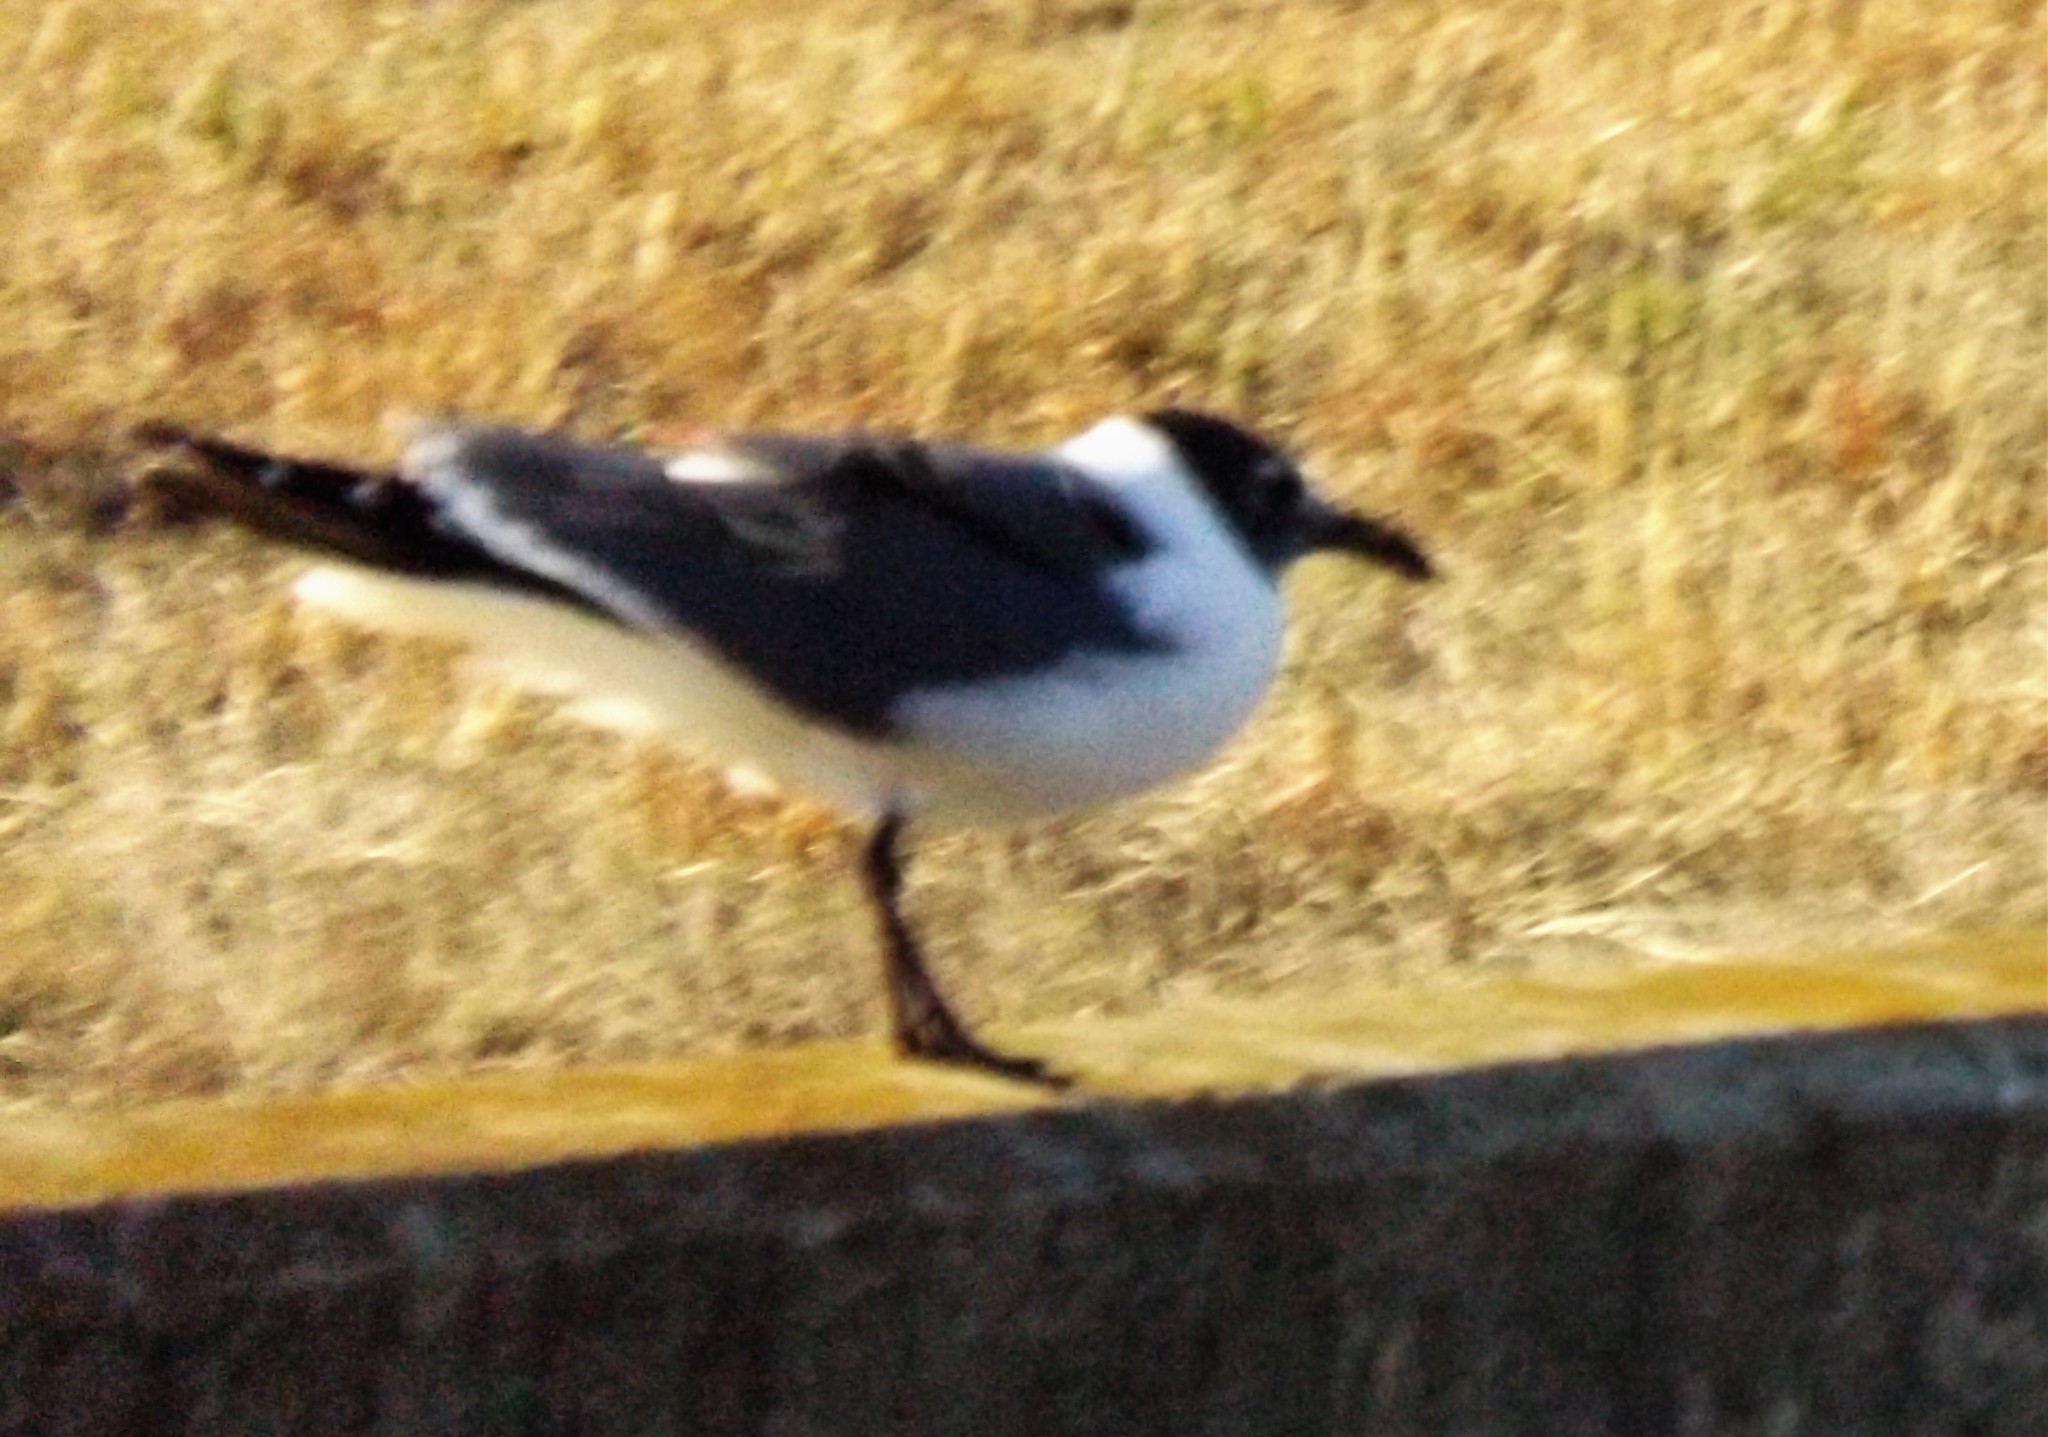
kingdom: Animalia
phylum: Chordata
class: Aves
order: Charadriiformes
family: Laridae
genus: Leucophaeus
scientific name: Leucophaeus atricilla
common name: Laughing gull
